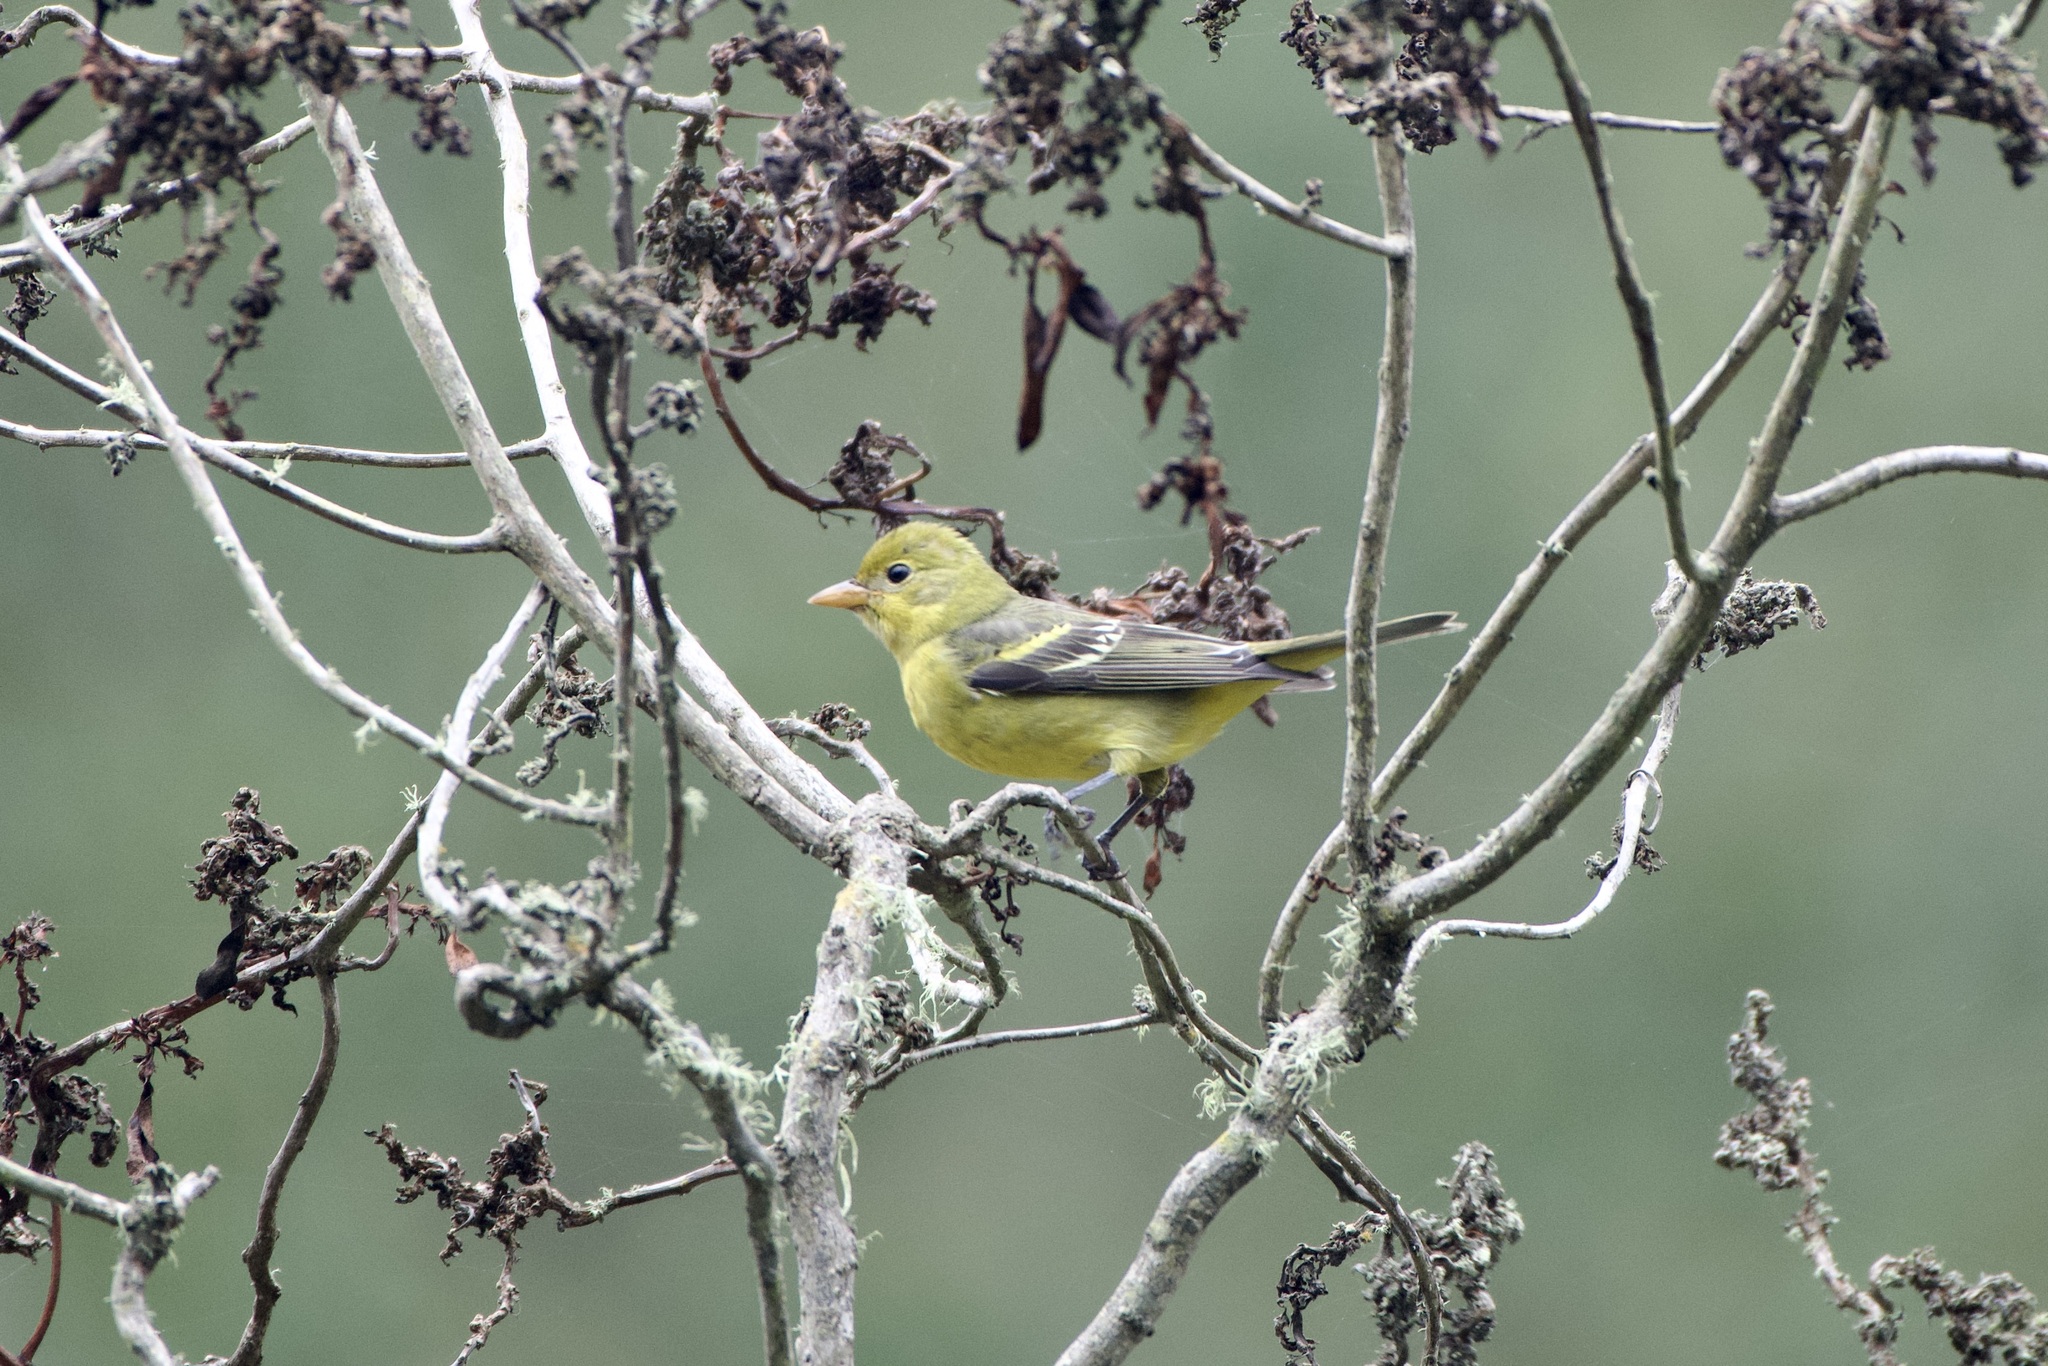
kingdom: Animalia
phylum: Chordata
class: Aves
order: Passeriformes
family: Cardinalidae
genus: Piranga
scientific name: Piranga ludoviciana
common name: Western tanager
